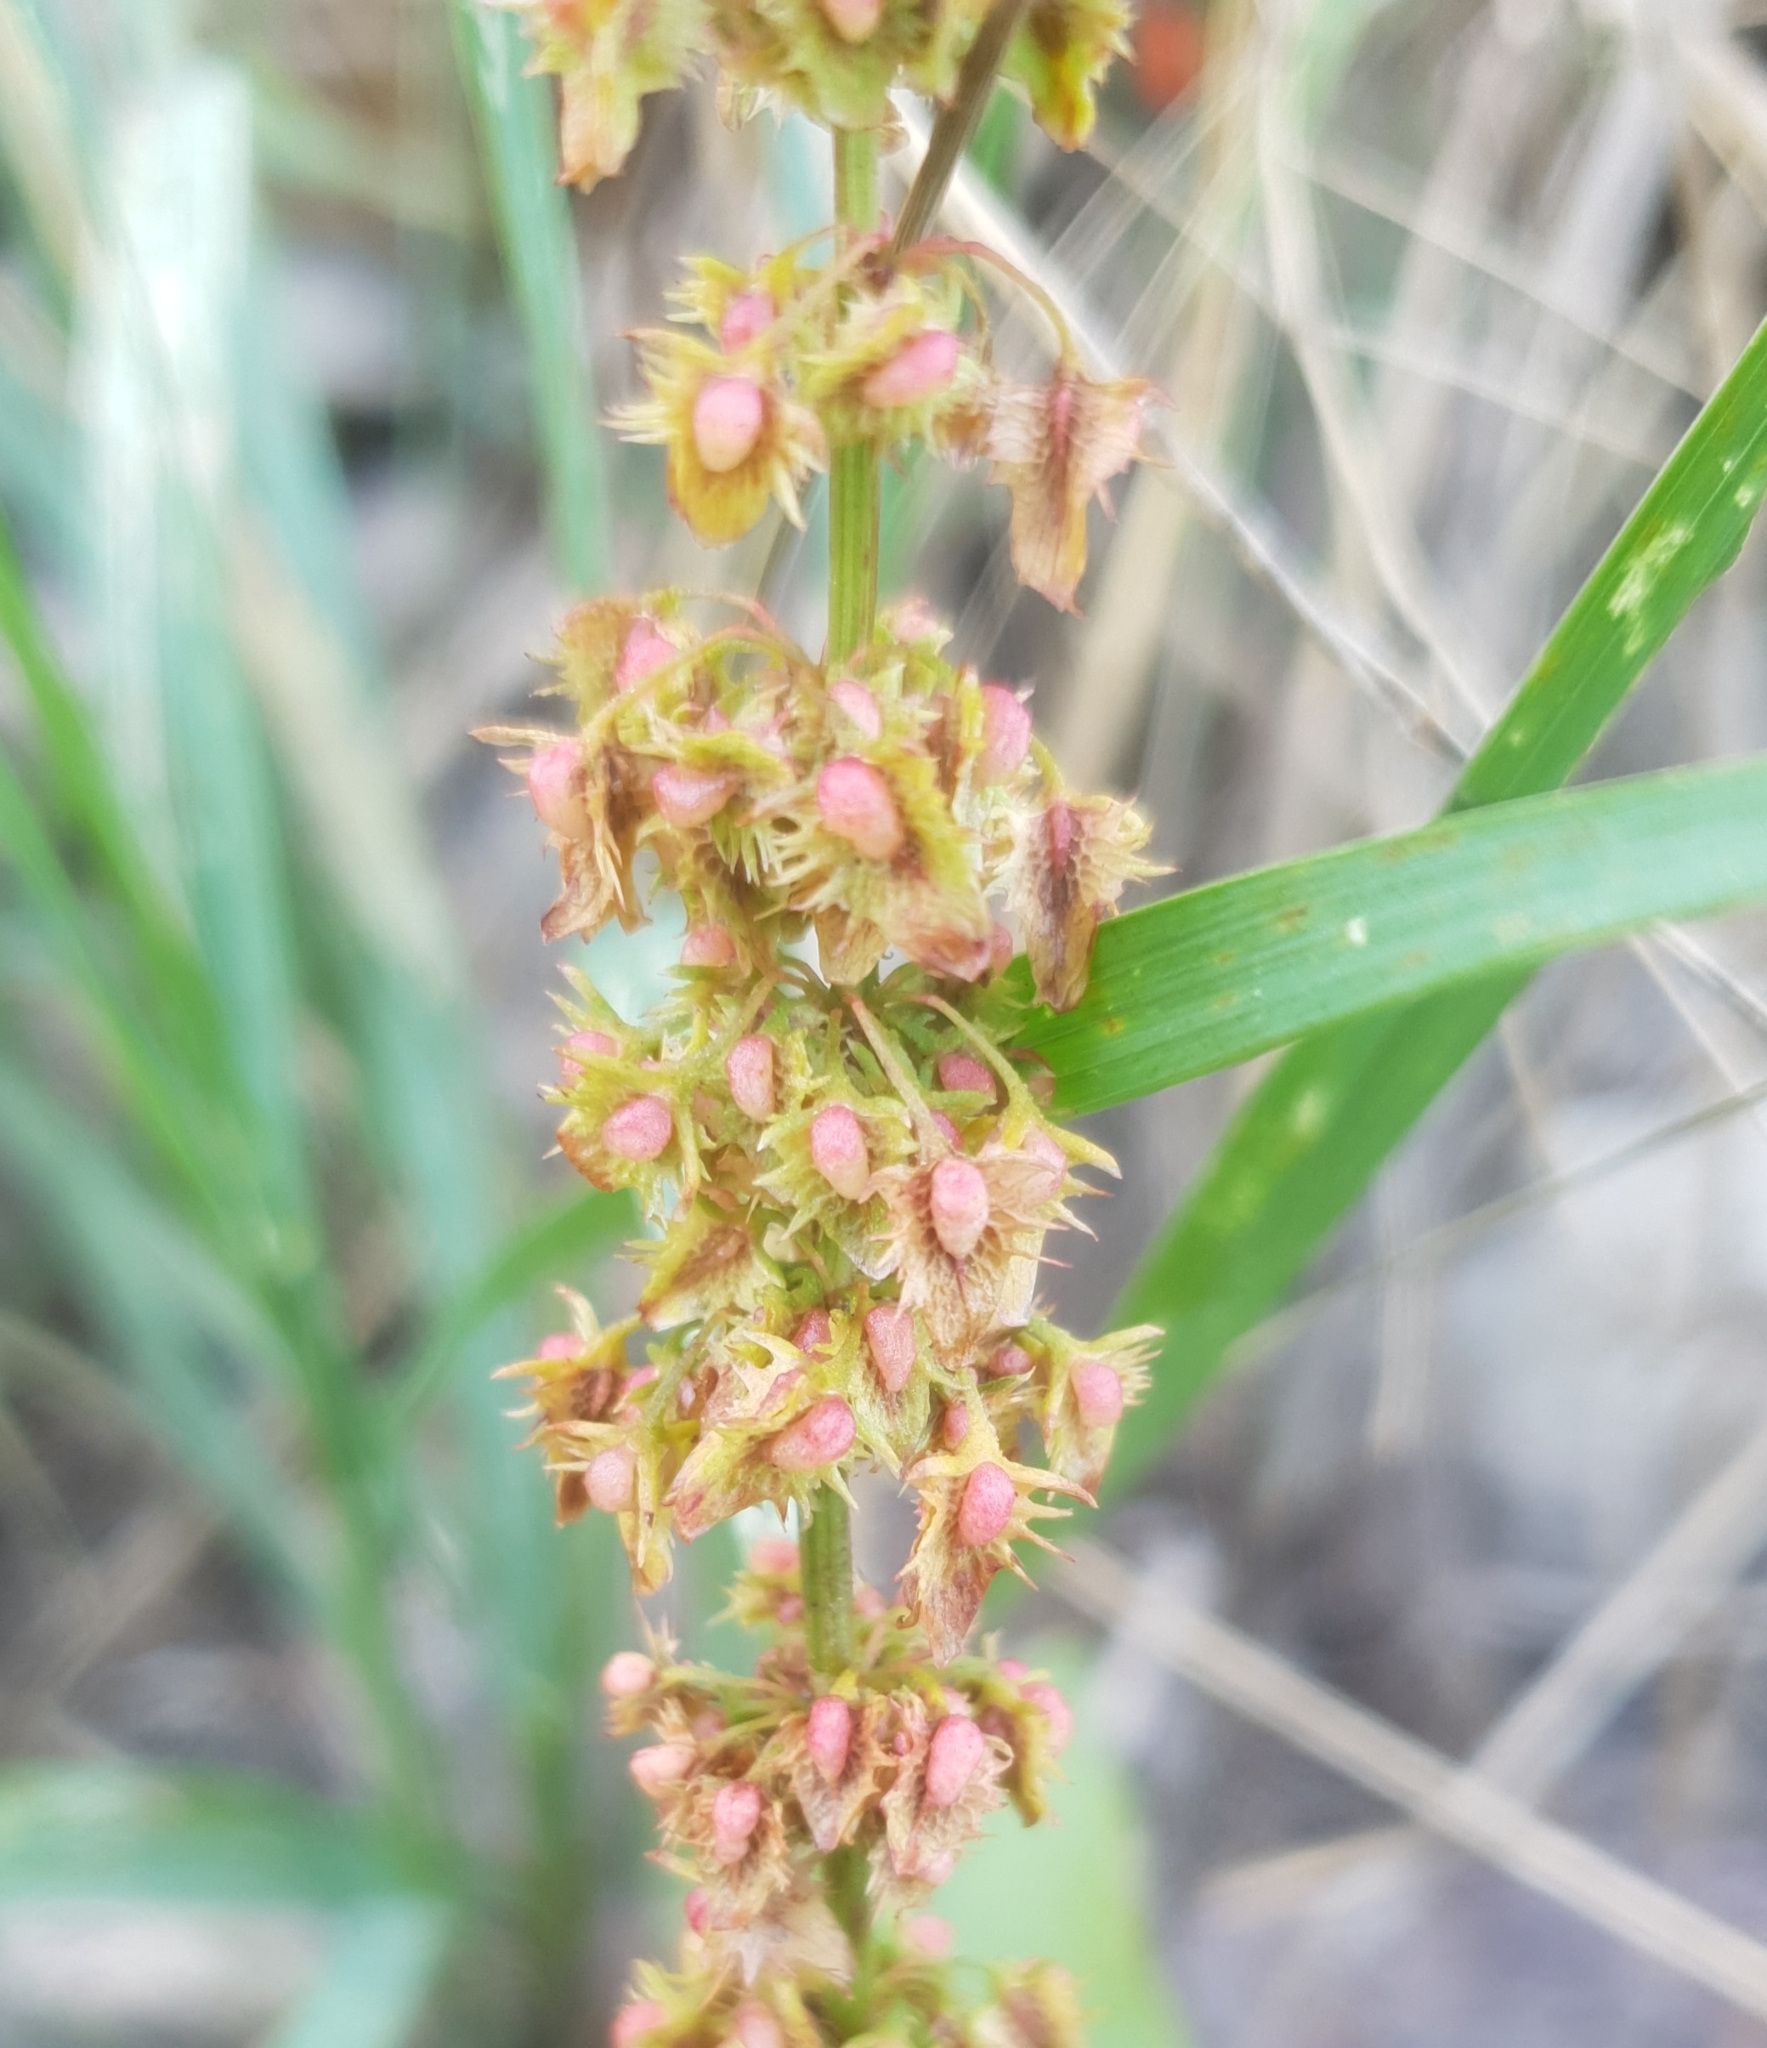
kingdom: Plantae
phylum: Tracheophyta
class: Magnoliopsida
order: Caryophyllales
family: Polygonaceae
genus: Rumex
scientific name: Rumex obtusifolius
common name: Bitter dock
